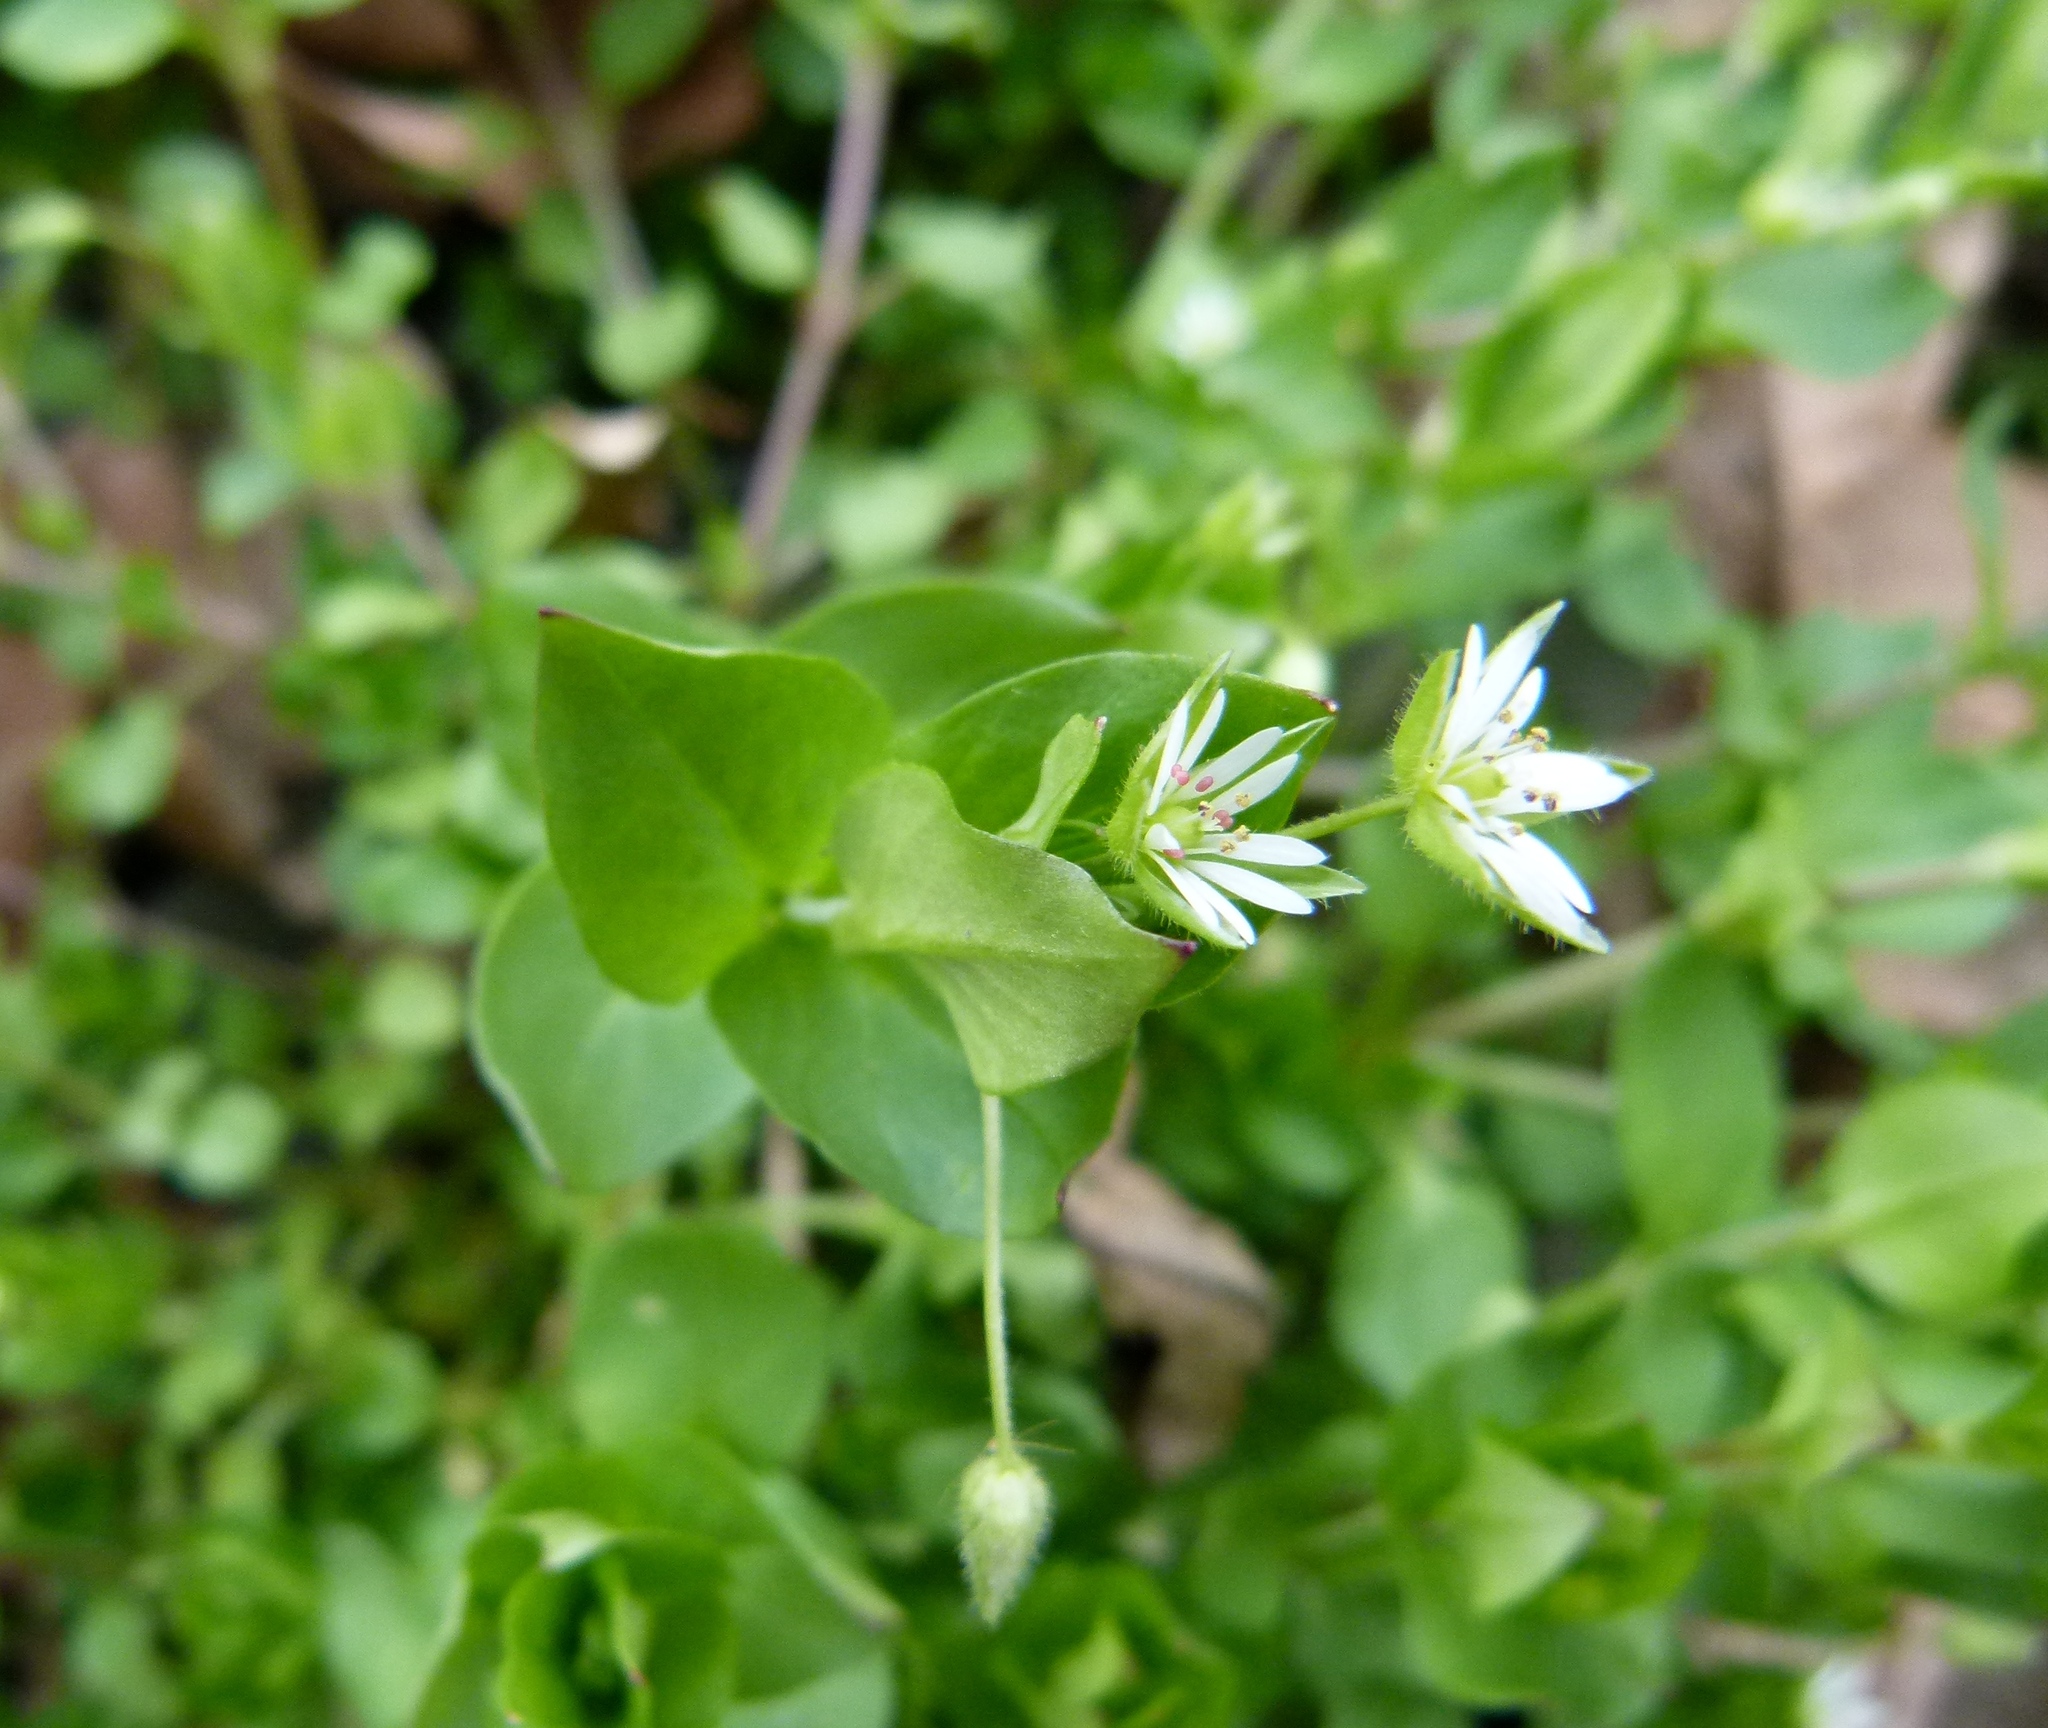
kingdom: Plantae
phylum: Tracheophyta
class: Magnoliopsida
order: Caryophyllales
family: Caryophyllaceae
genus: Stellaria
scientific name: Stellaria media
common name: Common chickweed
